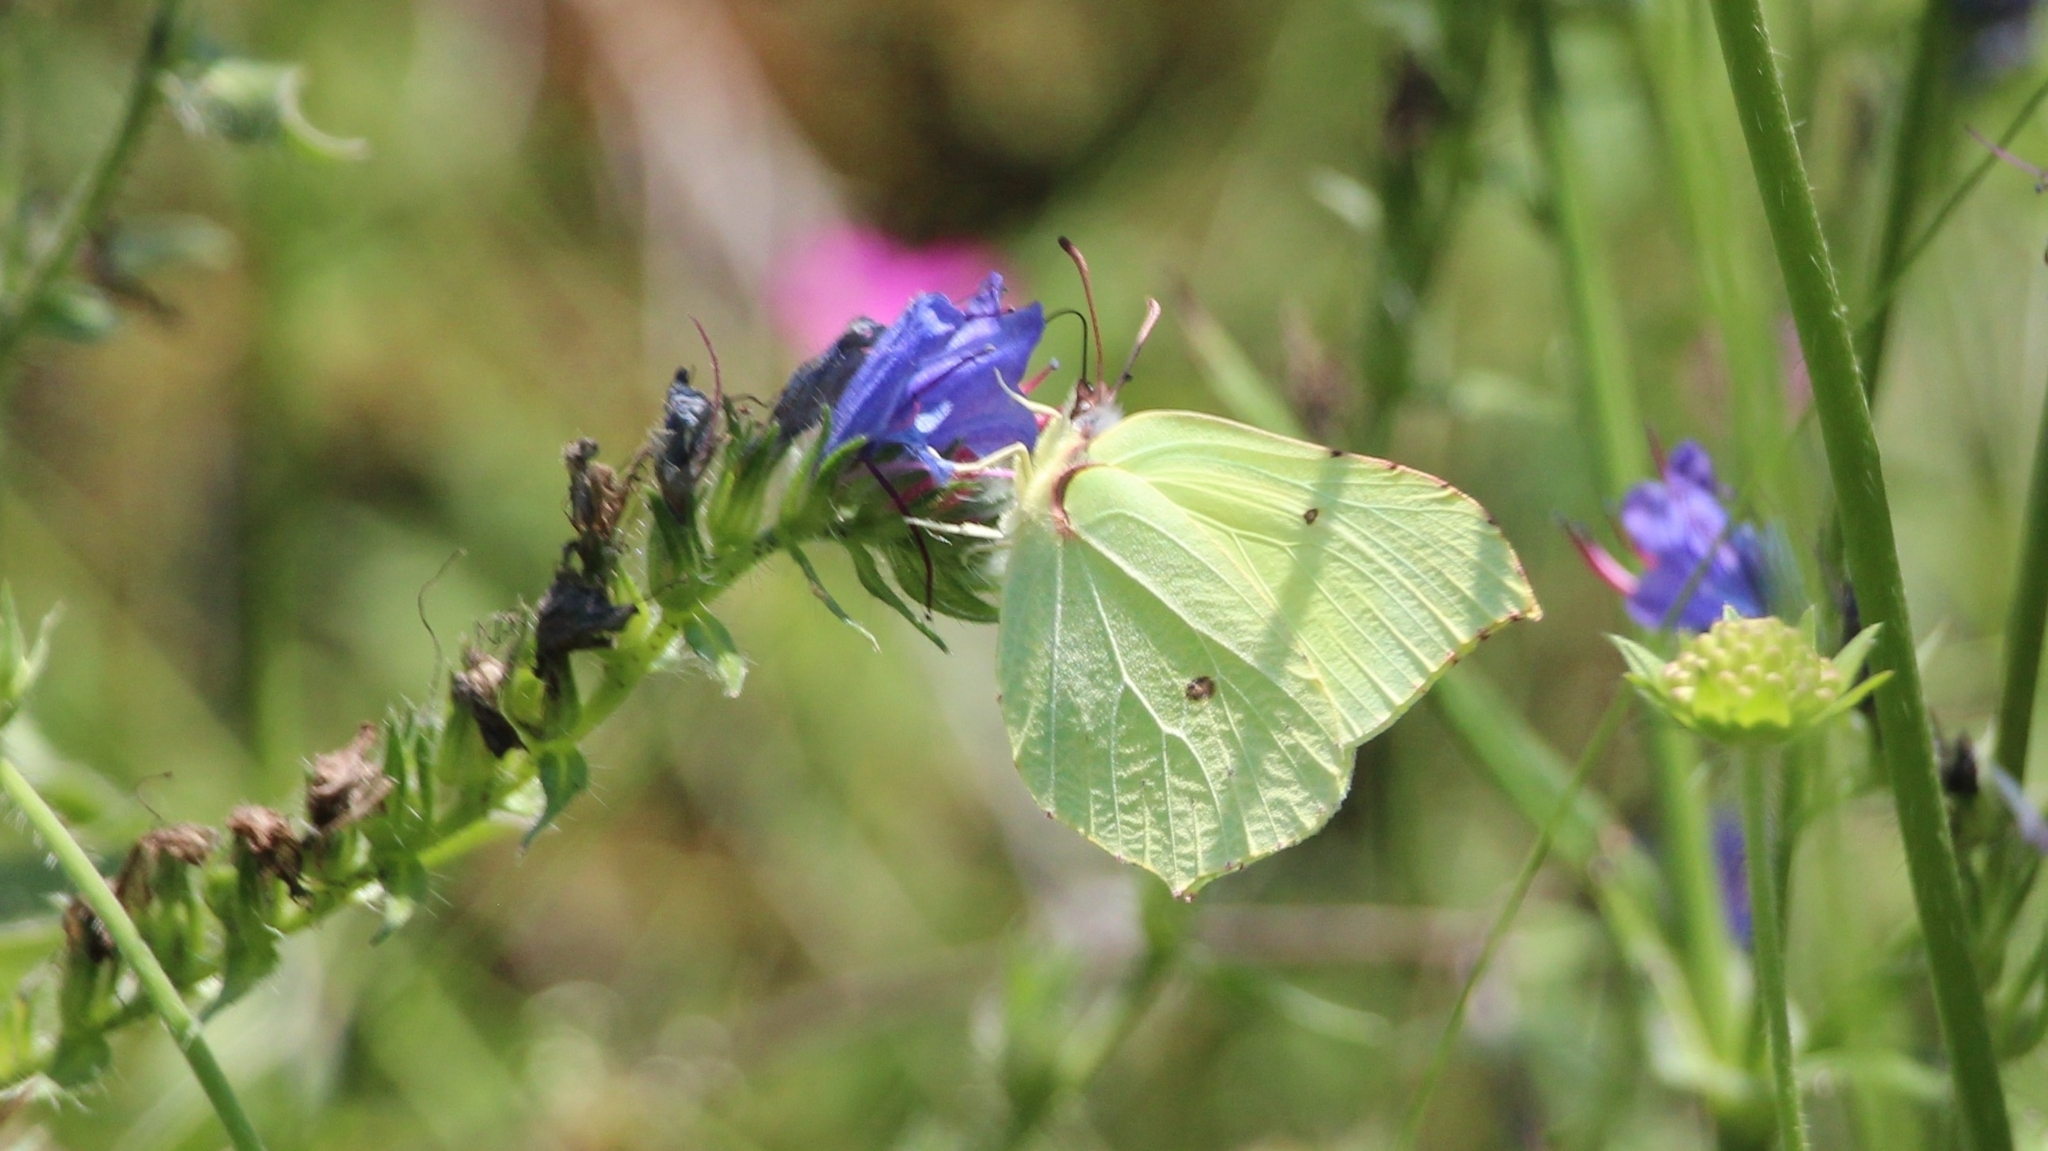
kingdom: Animalia
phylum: Arthropoda
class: Insecta
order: Lepidoptera
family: Pieridae
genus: Gonepteryx
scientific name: Gonepteryx rhamni
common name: Brimstone
